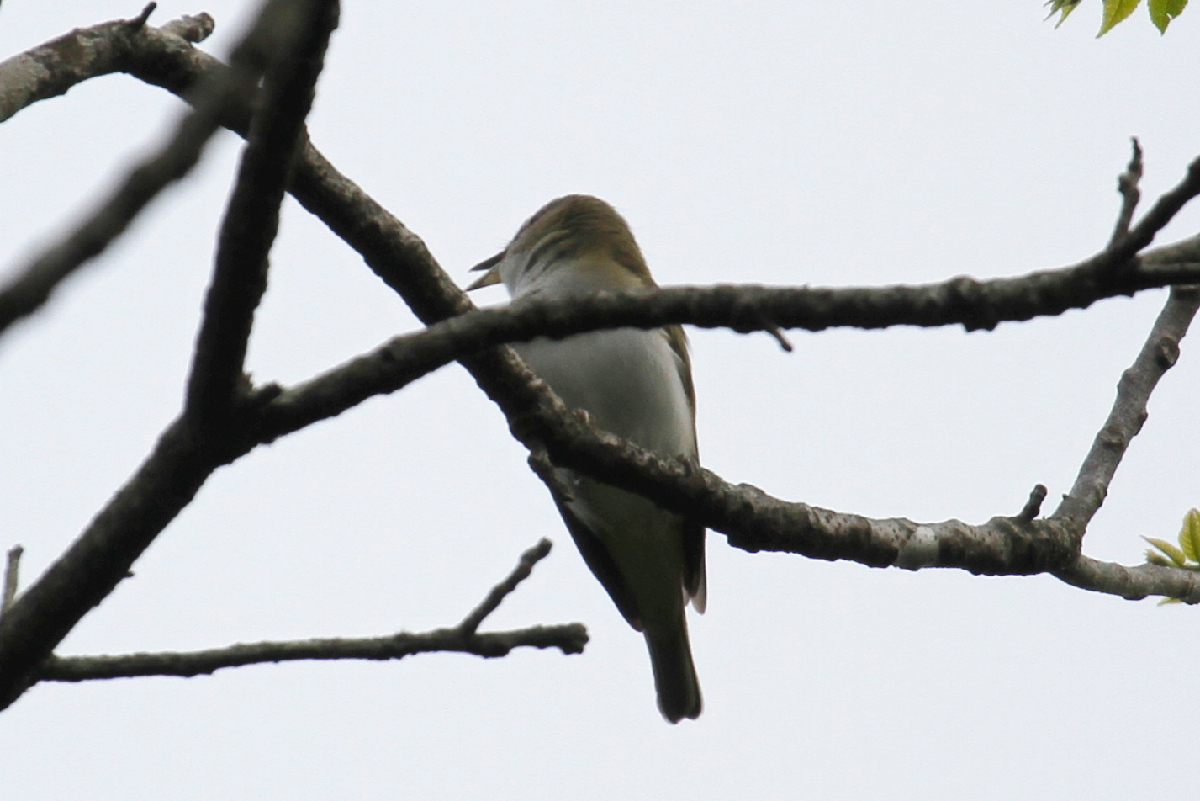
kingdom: Animalia
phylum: Chordata
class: Aves
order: Passeriformes
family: Vireonidae
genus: Vireo
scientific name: Vireo olivaceus
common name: Red-eyed vireo
